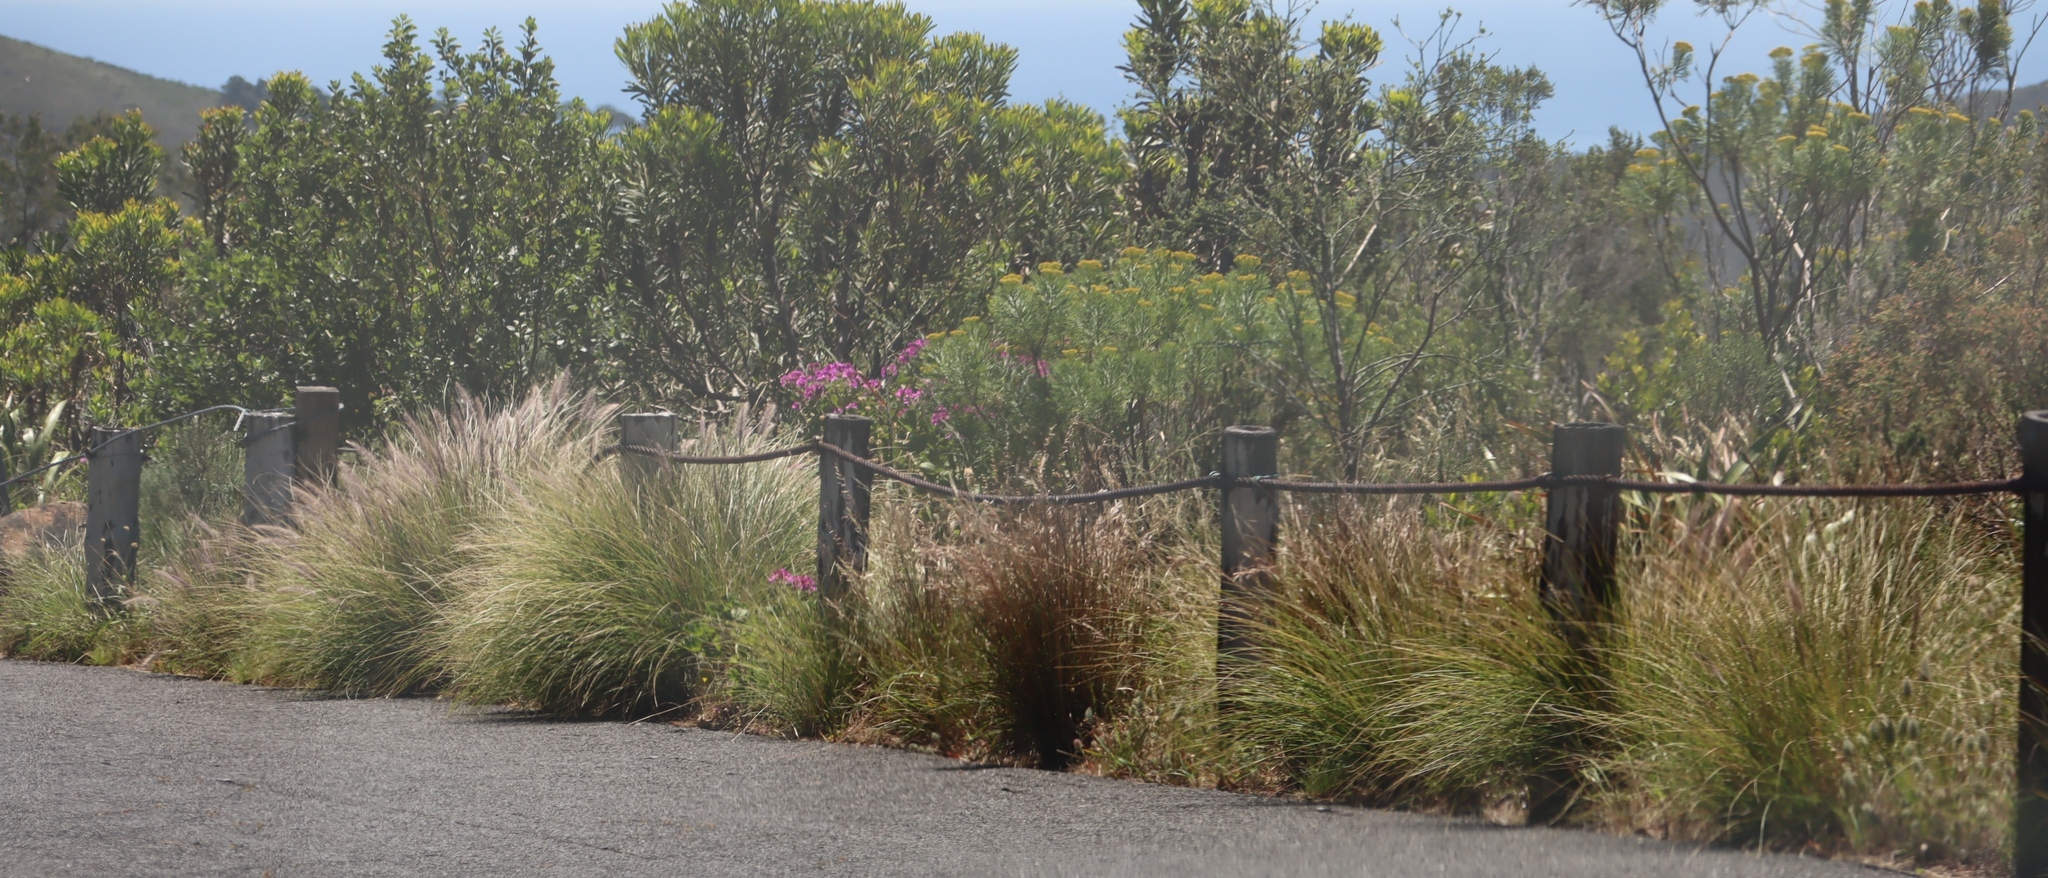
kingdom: Plantae
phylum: Tracheophyta
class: Liliopsida
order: Poales
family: Poaceae
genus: Cenchrus
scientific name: Cenchrus setaceus
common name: Crimson fountaingrass
